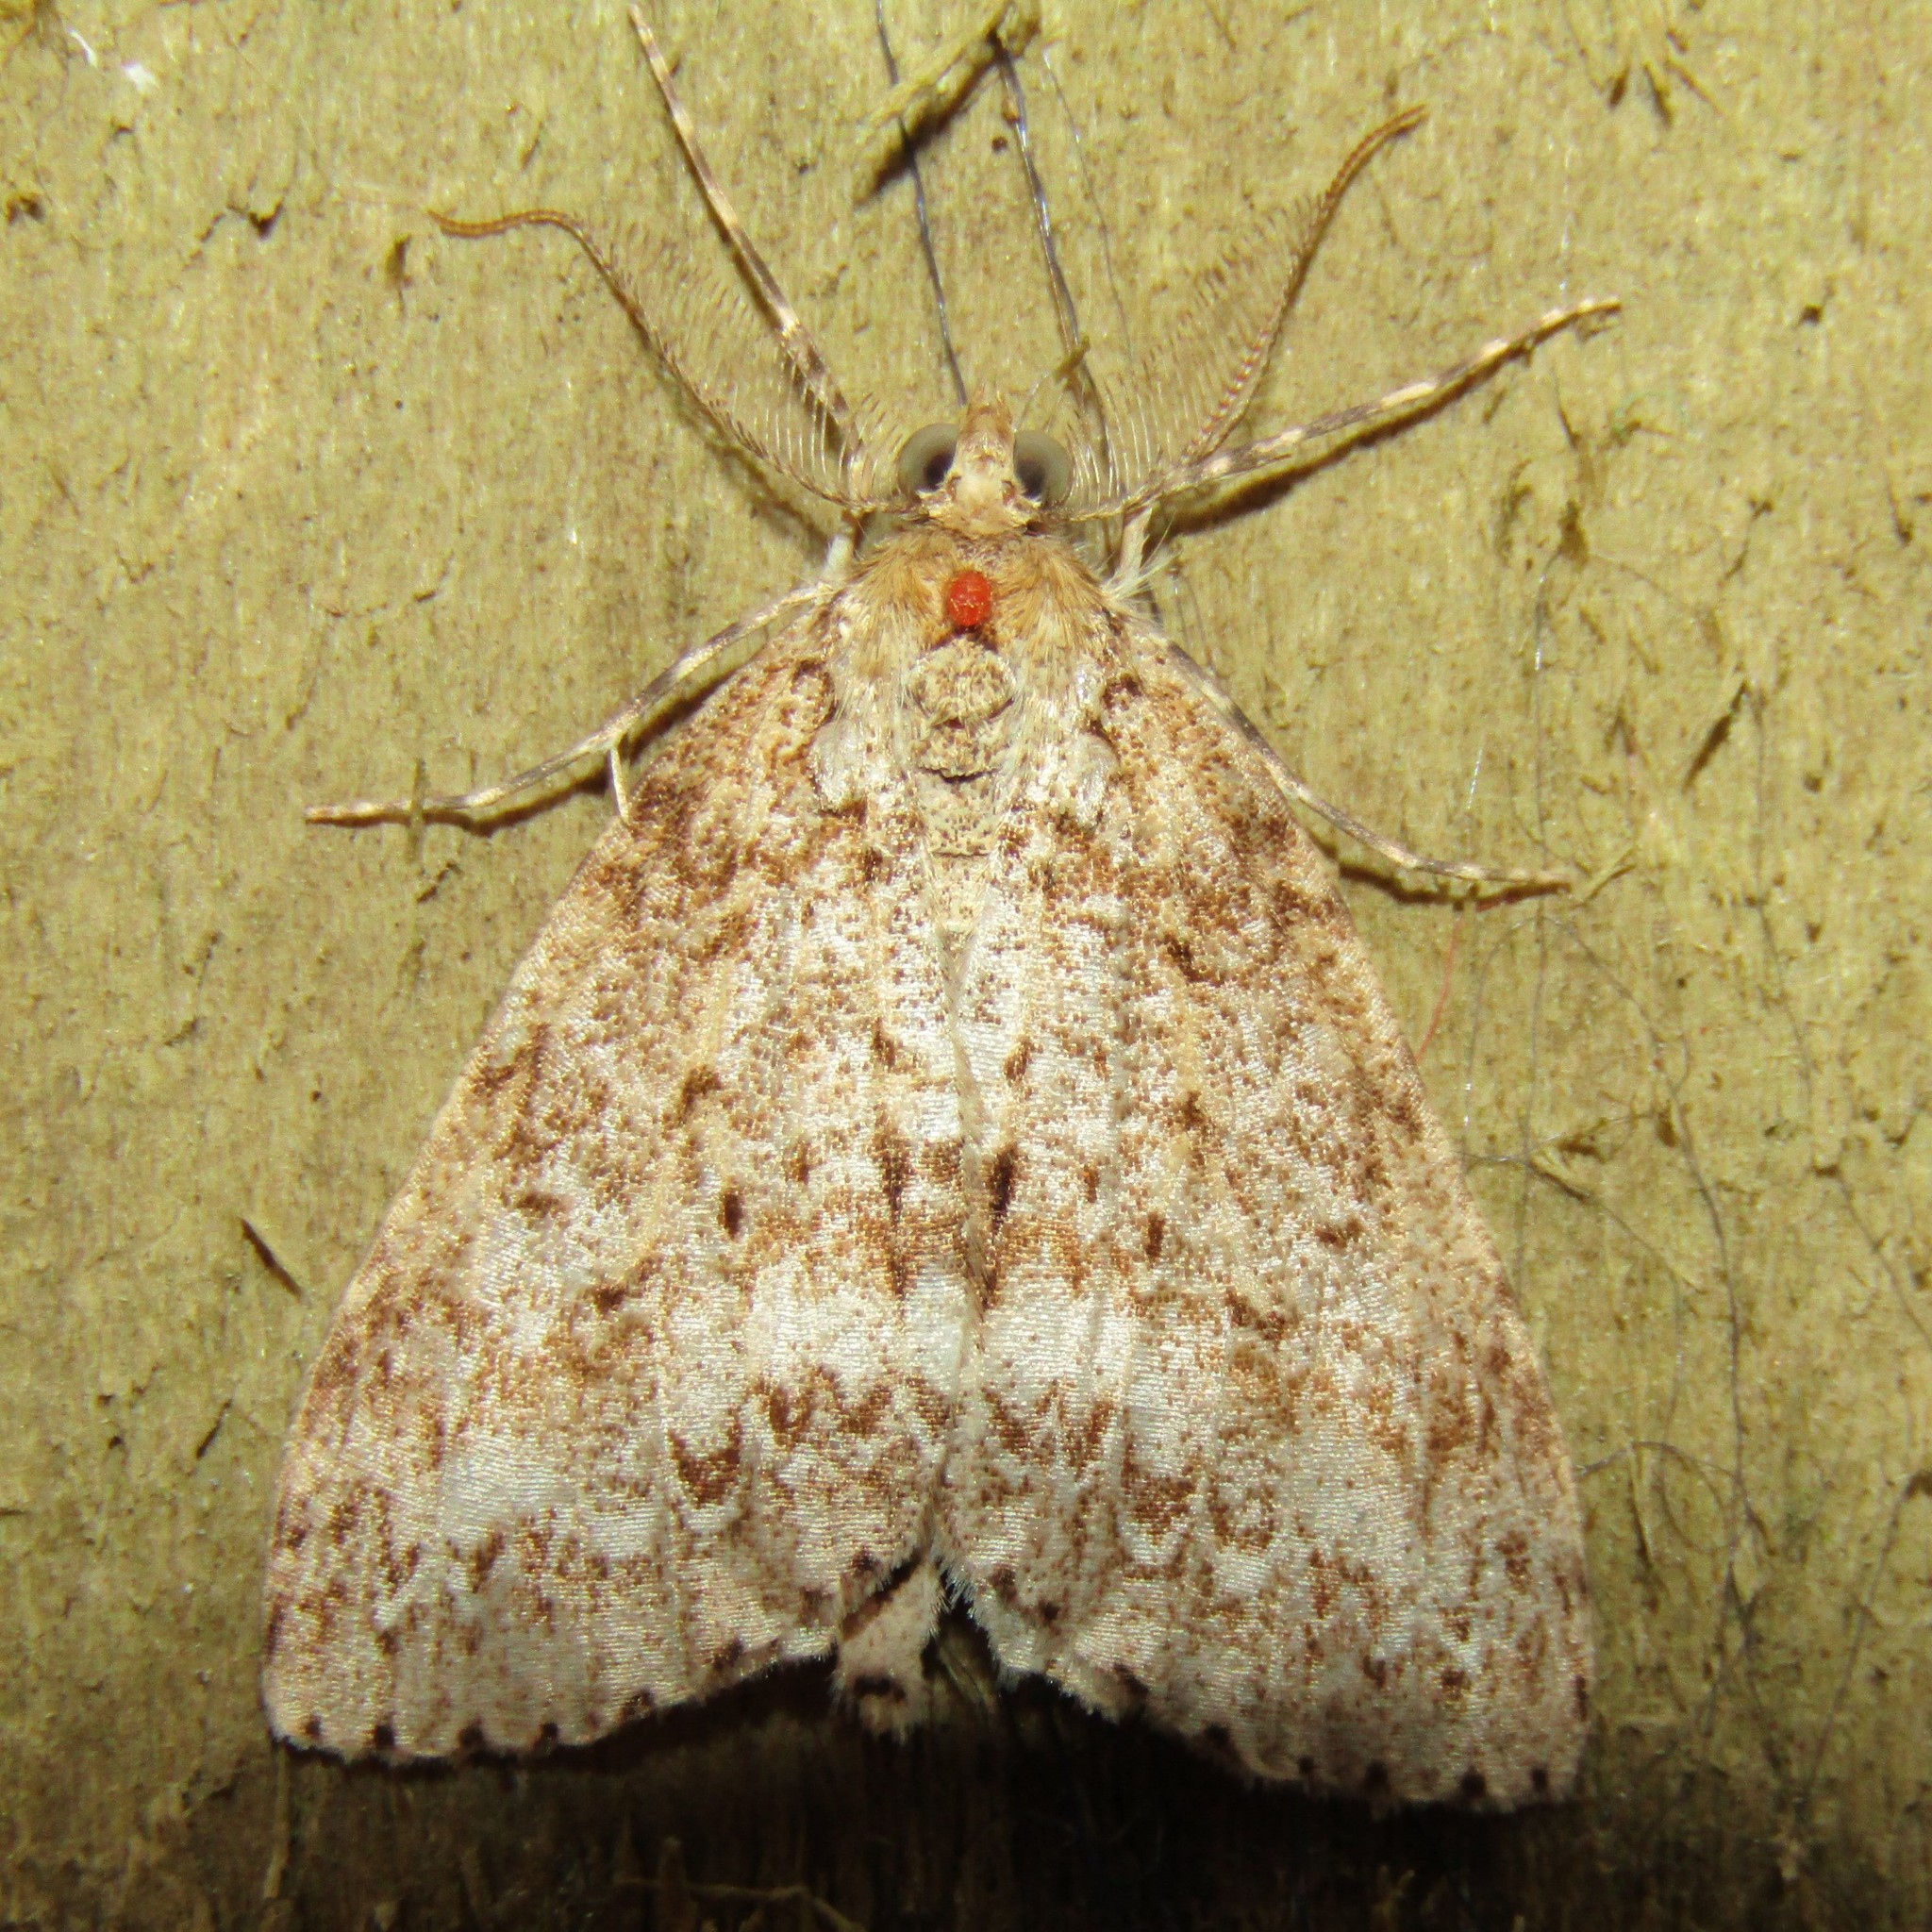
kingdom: Animalia
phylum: Arthropoda
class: Insecta
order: Lepidoptera
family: Geometridae
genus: Pseudocoremia
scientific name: Pseudocoremia fenerata
